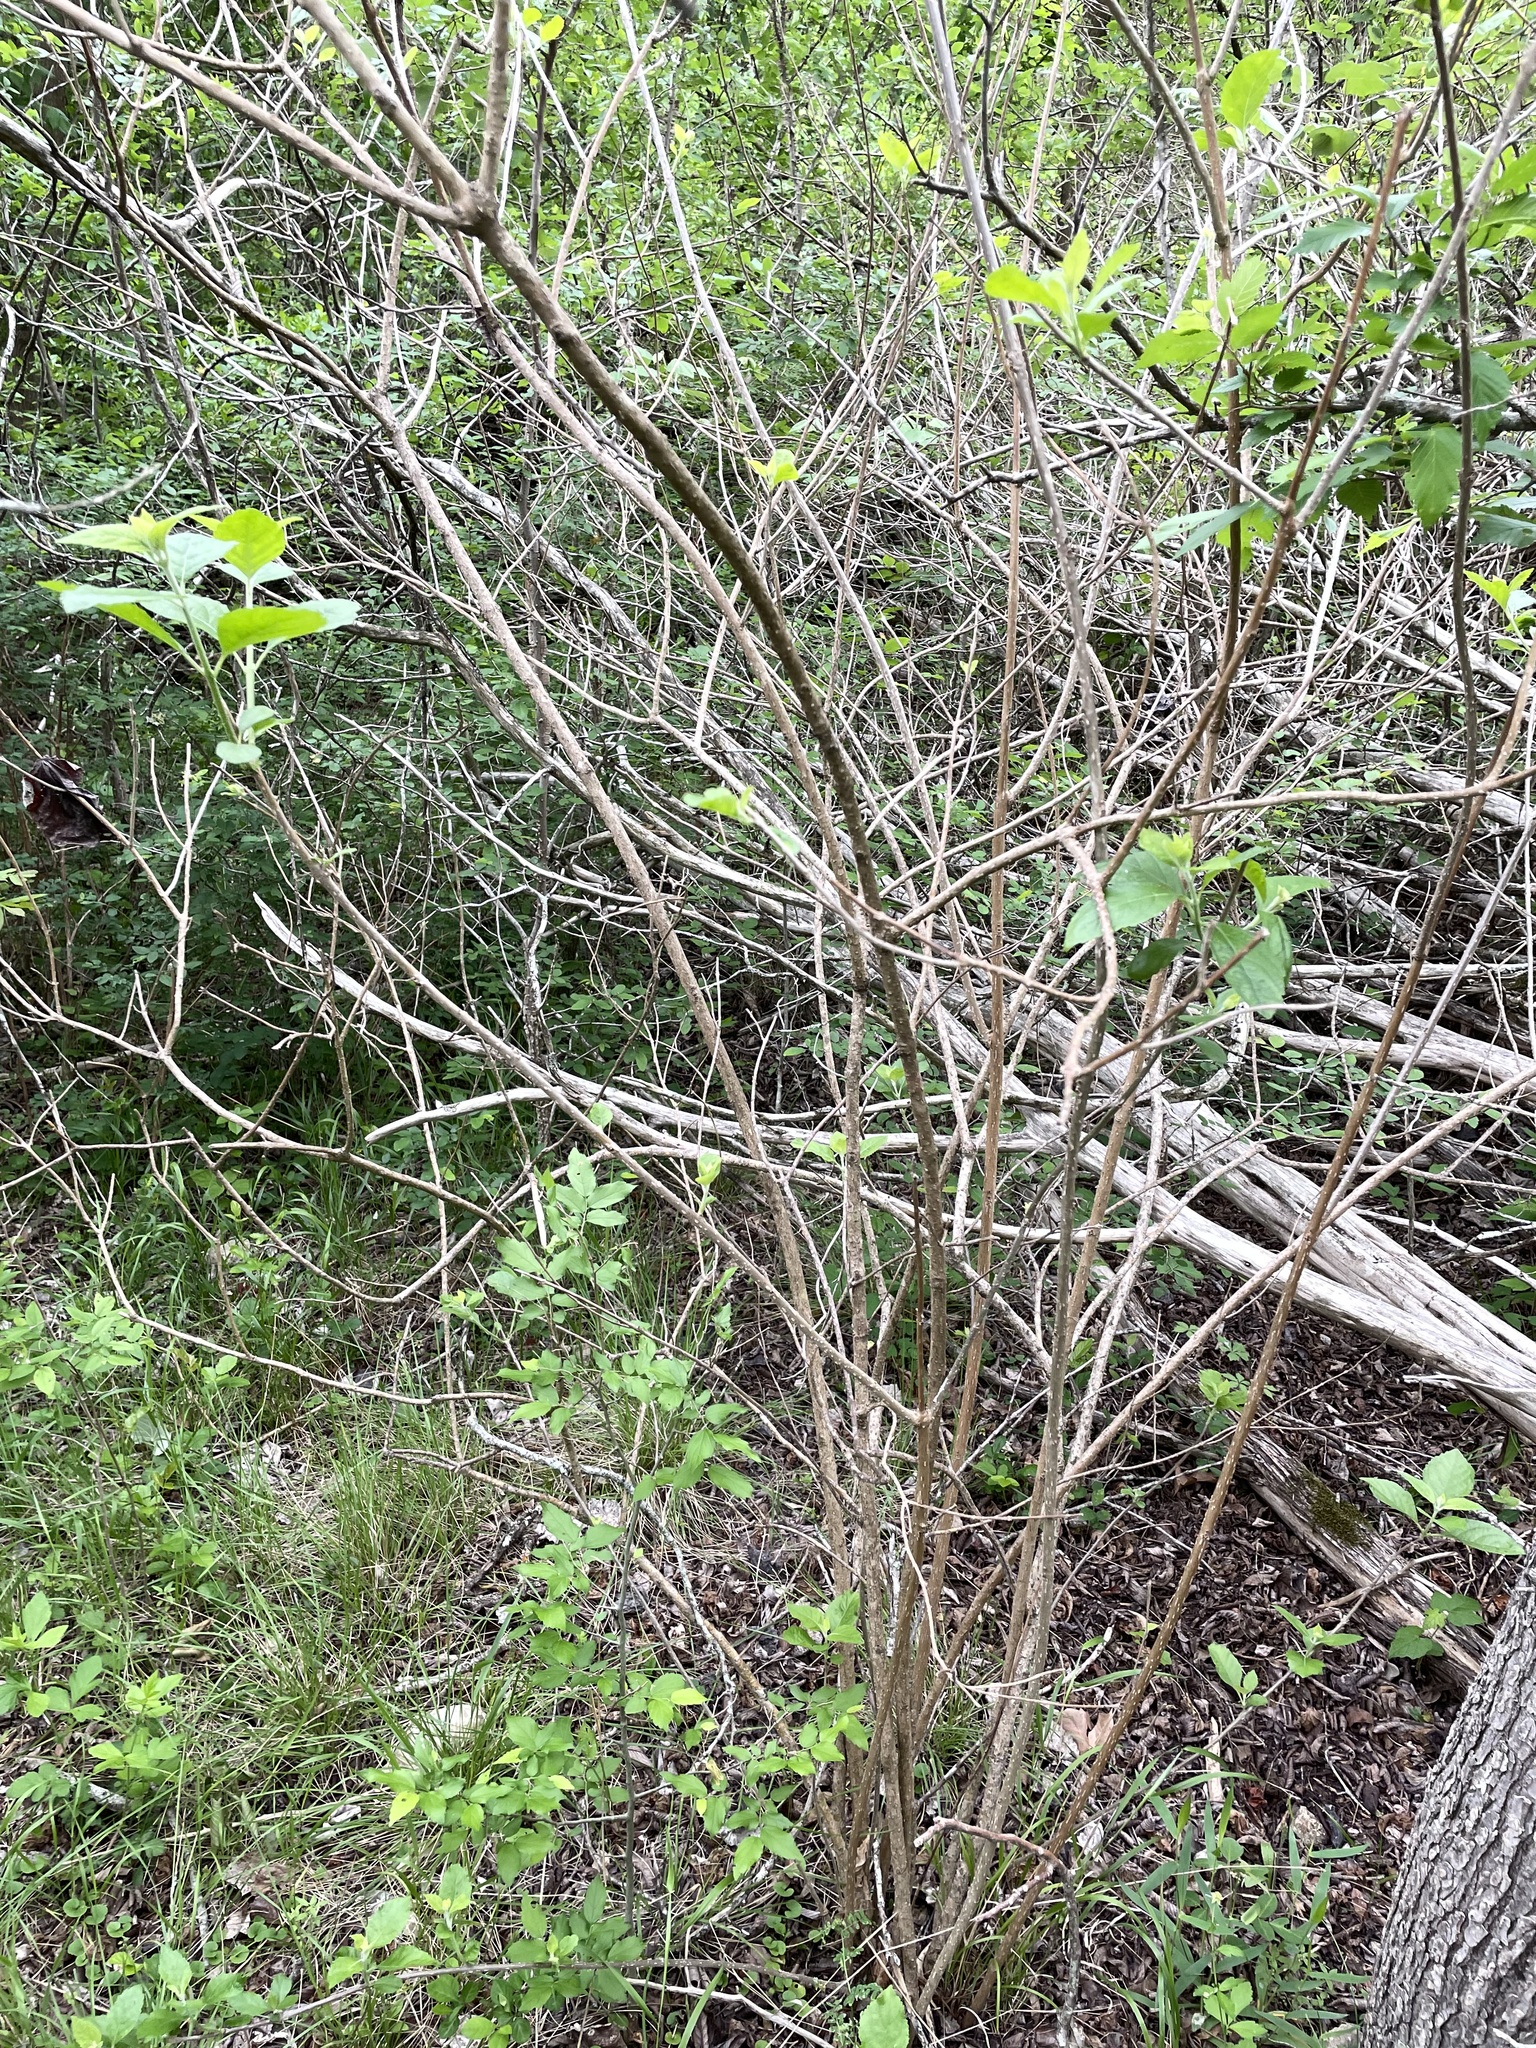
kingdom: Plantae
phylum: Tracheophyta
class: Magnoliopsida
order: Lamiales
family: Lamiaceae
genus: Callicarpa
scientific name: Callicarpa americana
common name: American beautyberry
